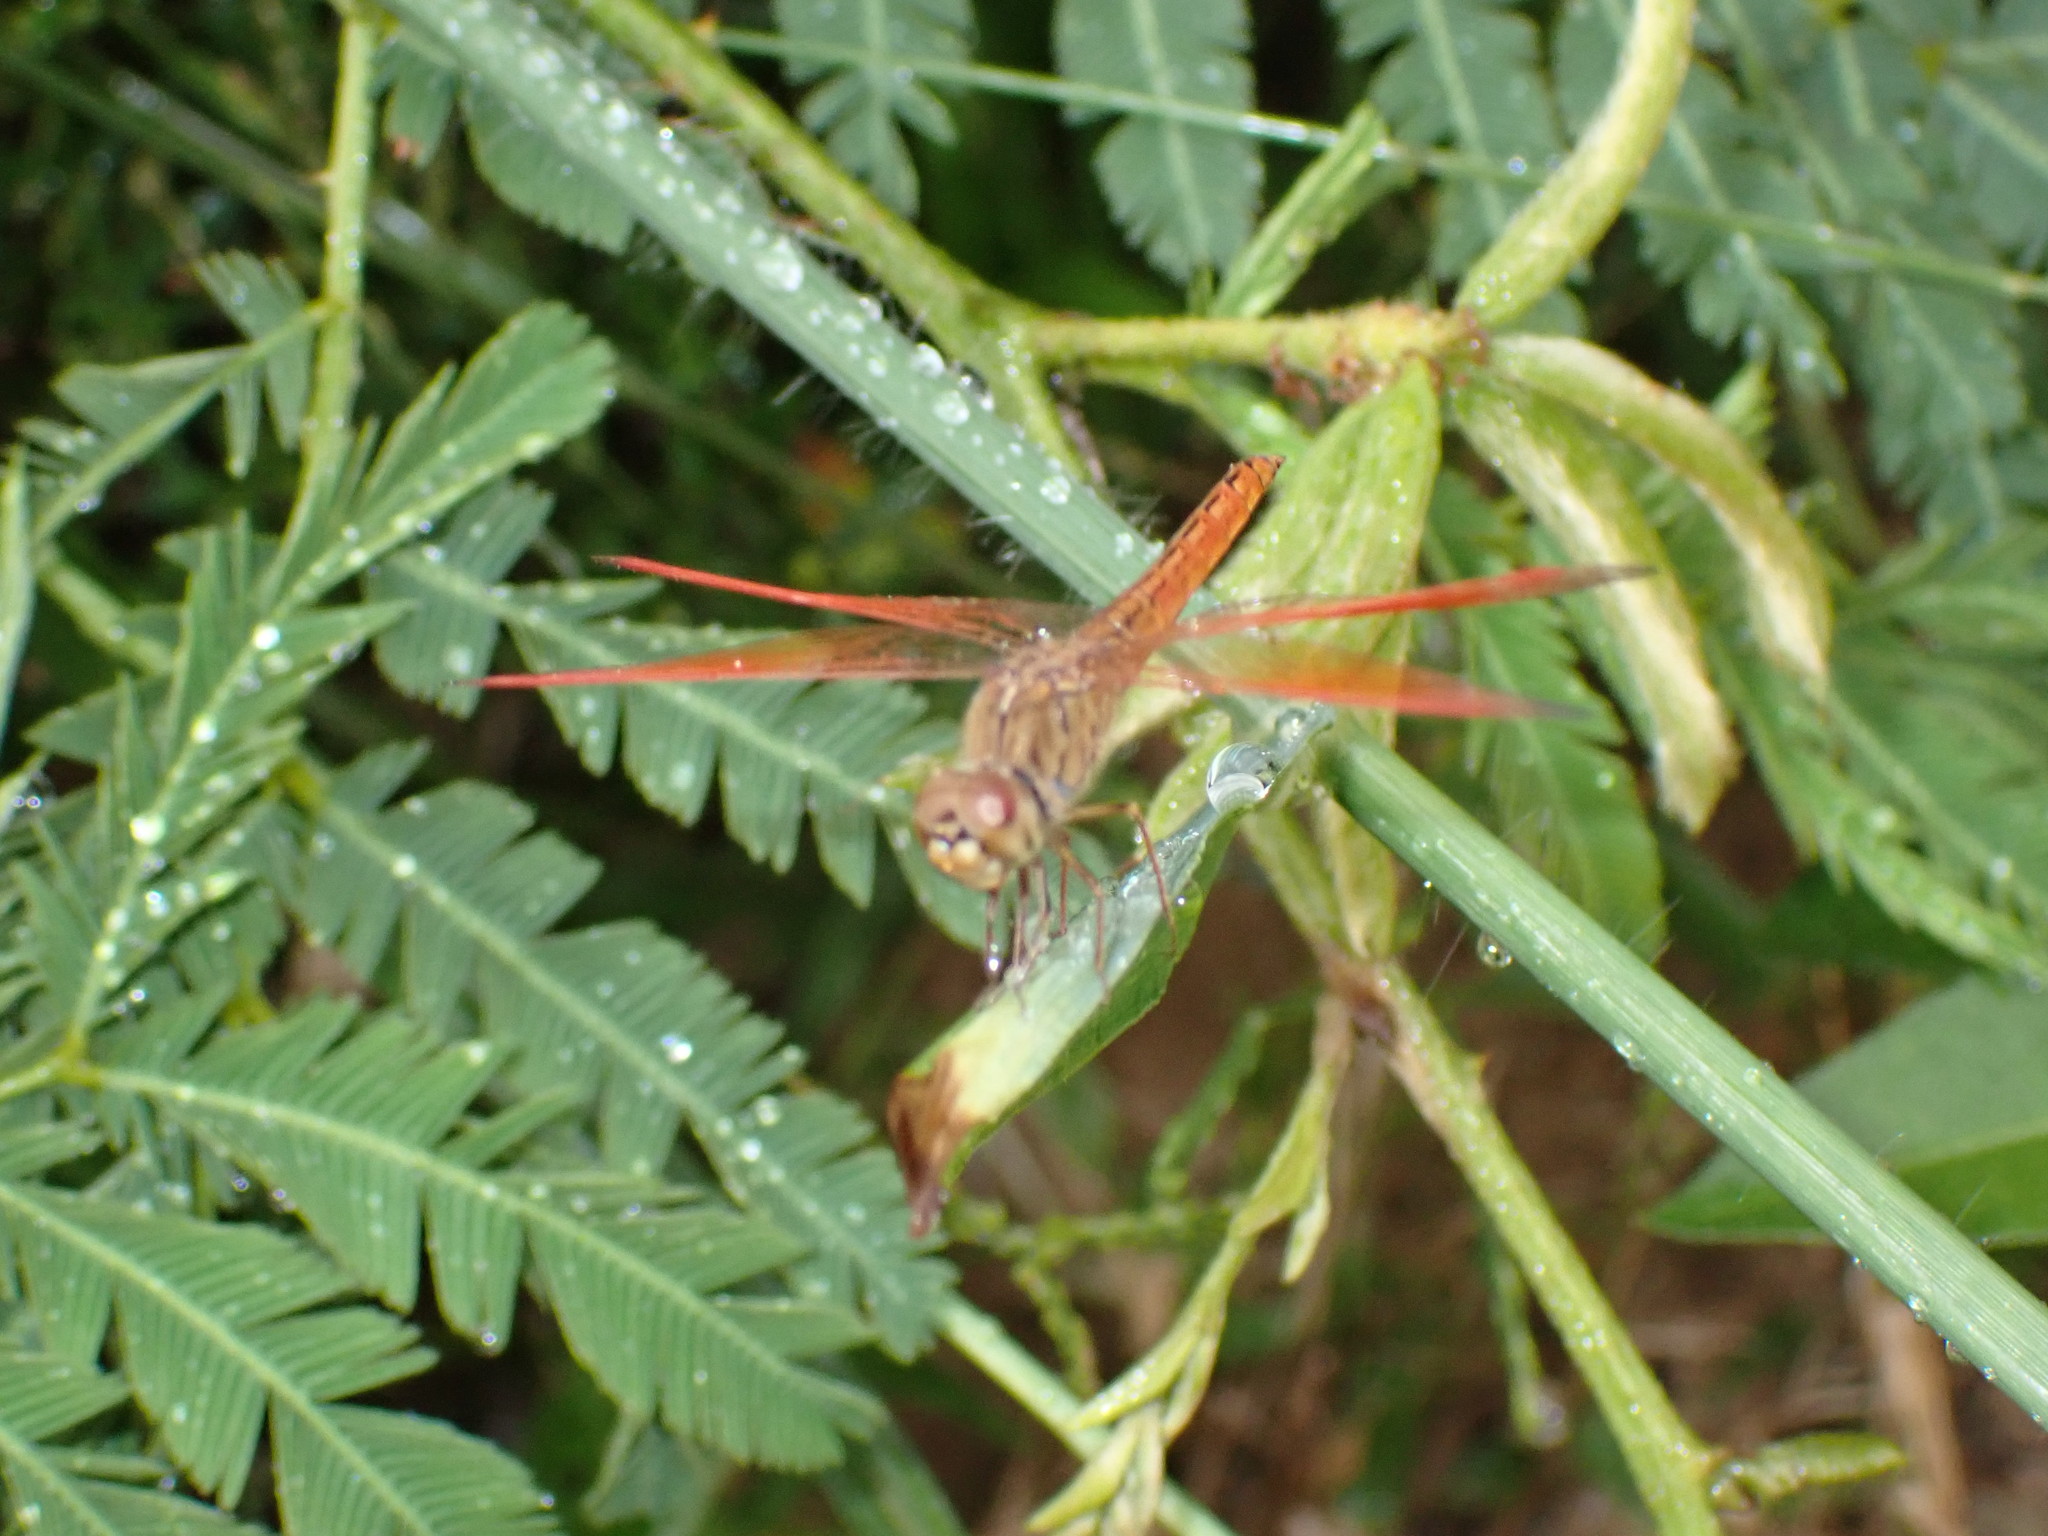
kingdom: Animalia
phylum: Arthropoda
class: Insecta
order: Odonata
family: Libellulidae
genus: Brachythemis
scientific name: Brachythemis contaminata
